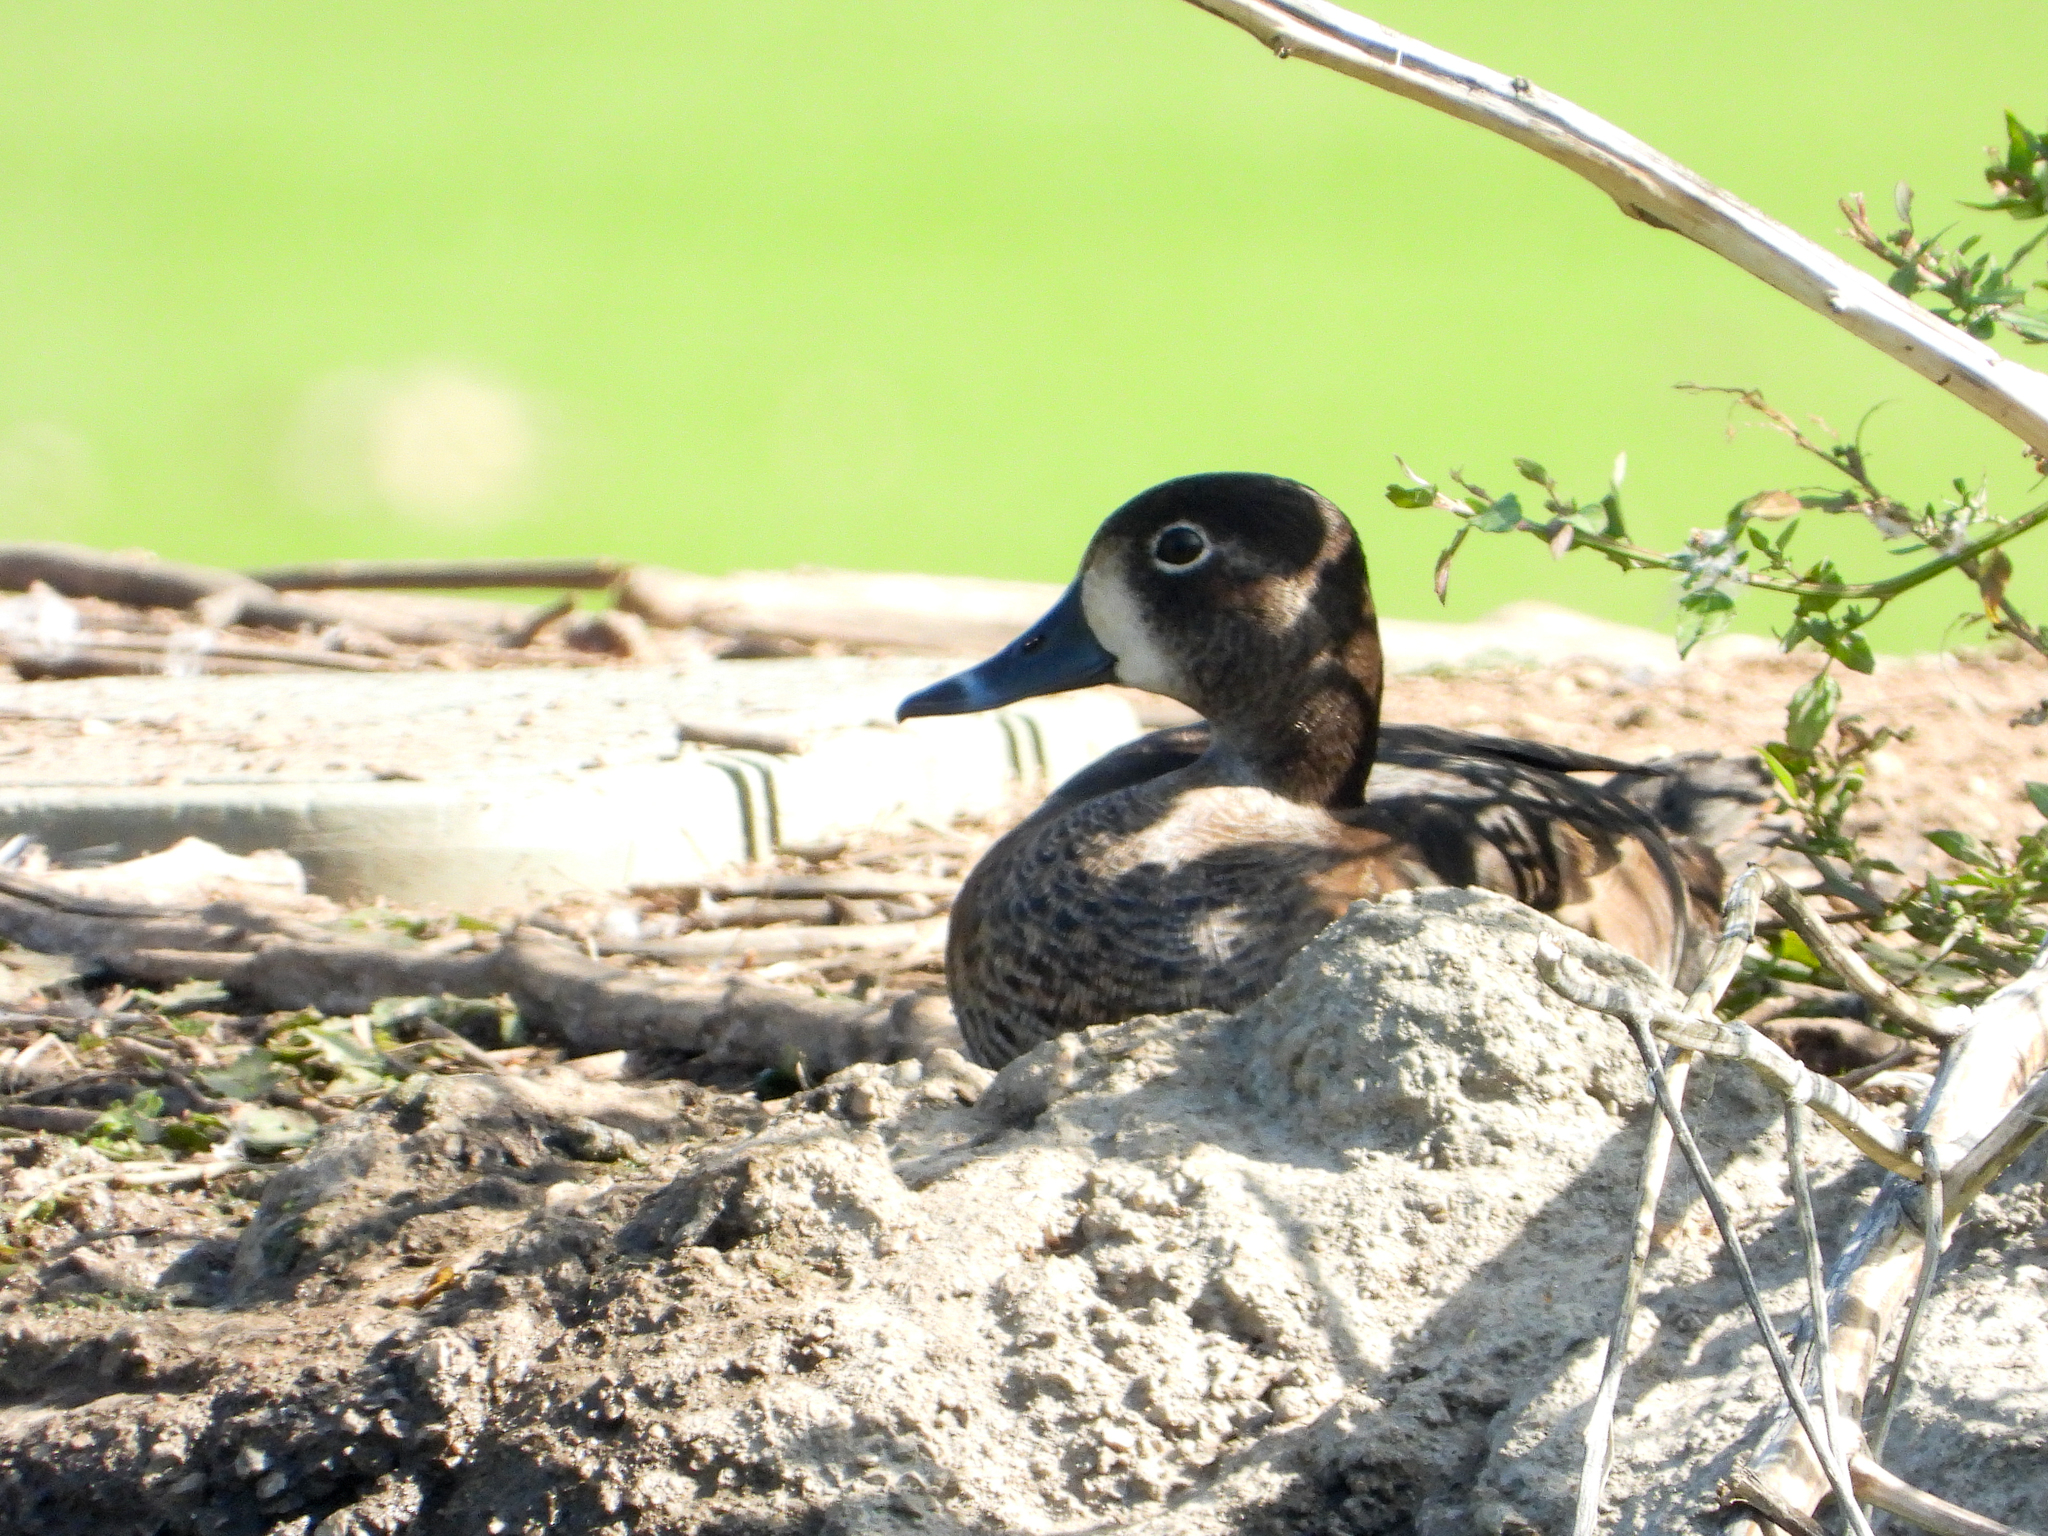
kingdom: Animalia
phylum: Chordata
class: Aves
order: Anseriformes
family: Anatidae
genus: Aythya
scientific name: Aythya collaris
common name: Ring-necked duck
